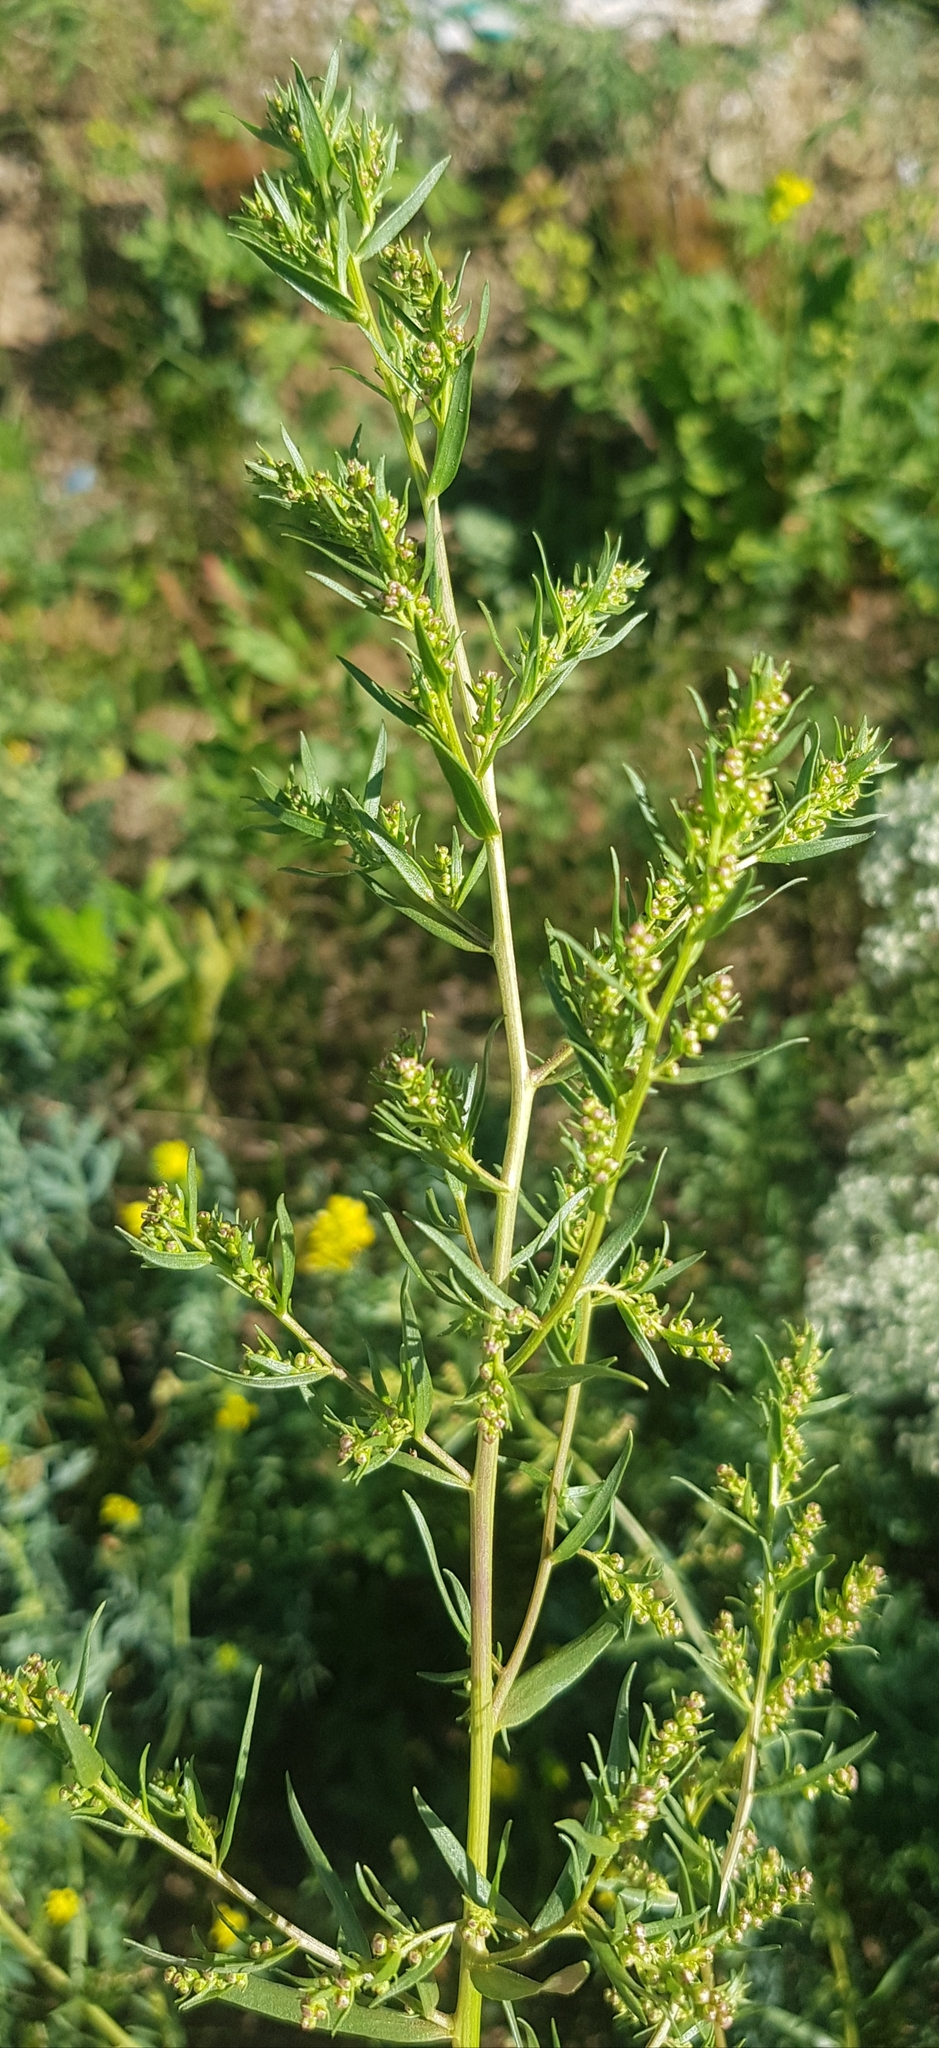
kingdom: Plantae
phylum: Tracheophyta
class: Magnoliopsida
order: Asterales
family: Asteraceae
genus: Artemisia
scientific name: Artemisia dracunculus
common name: Tarragon
